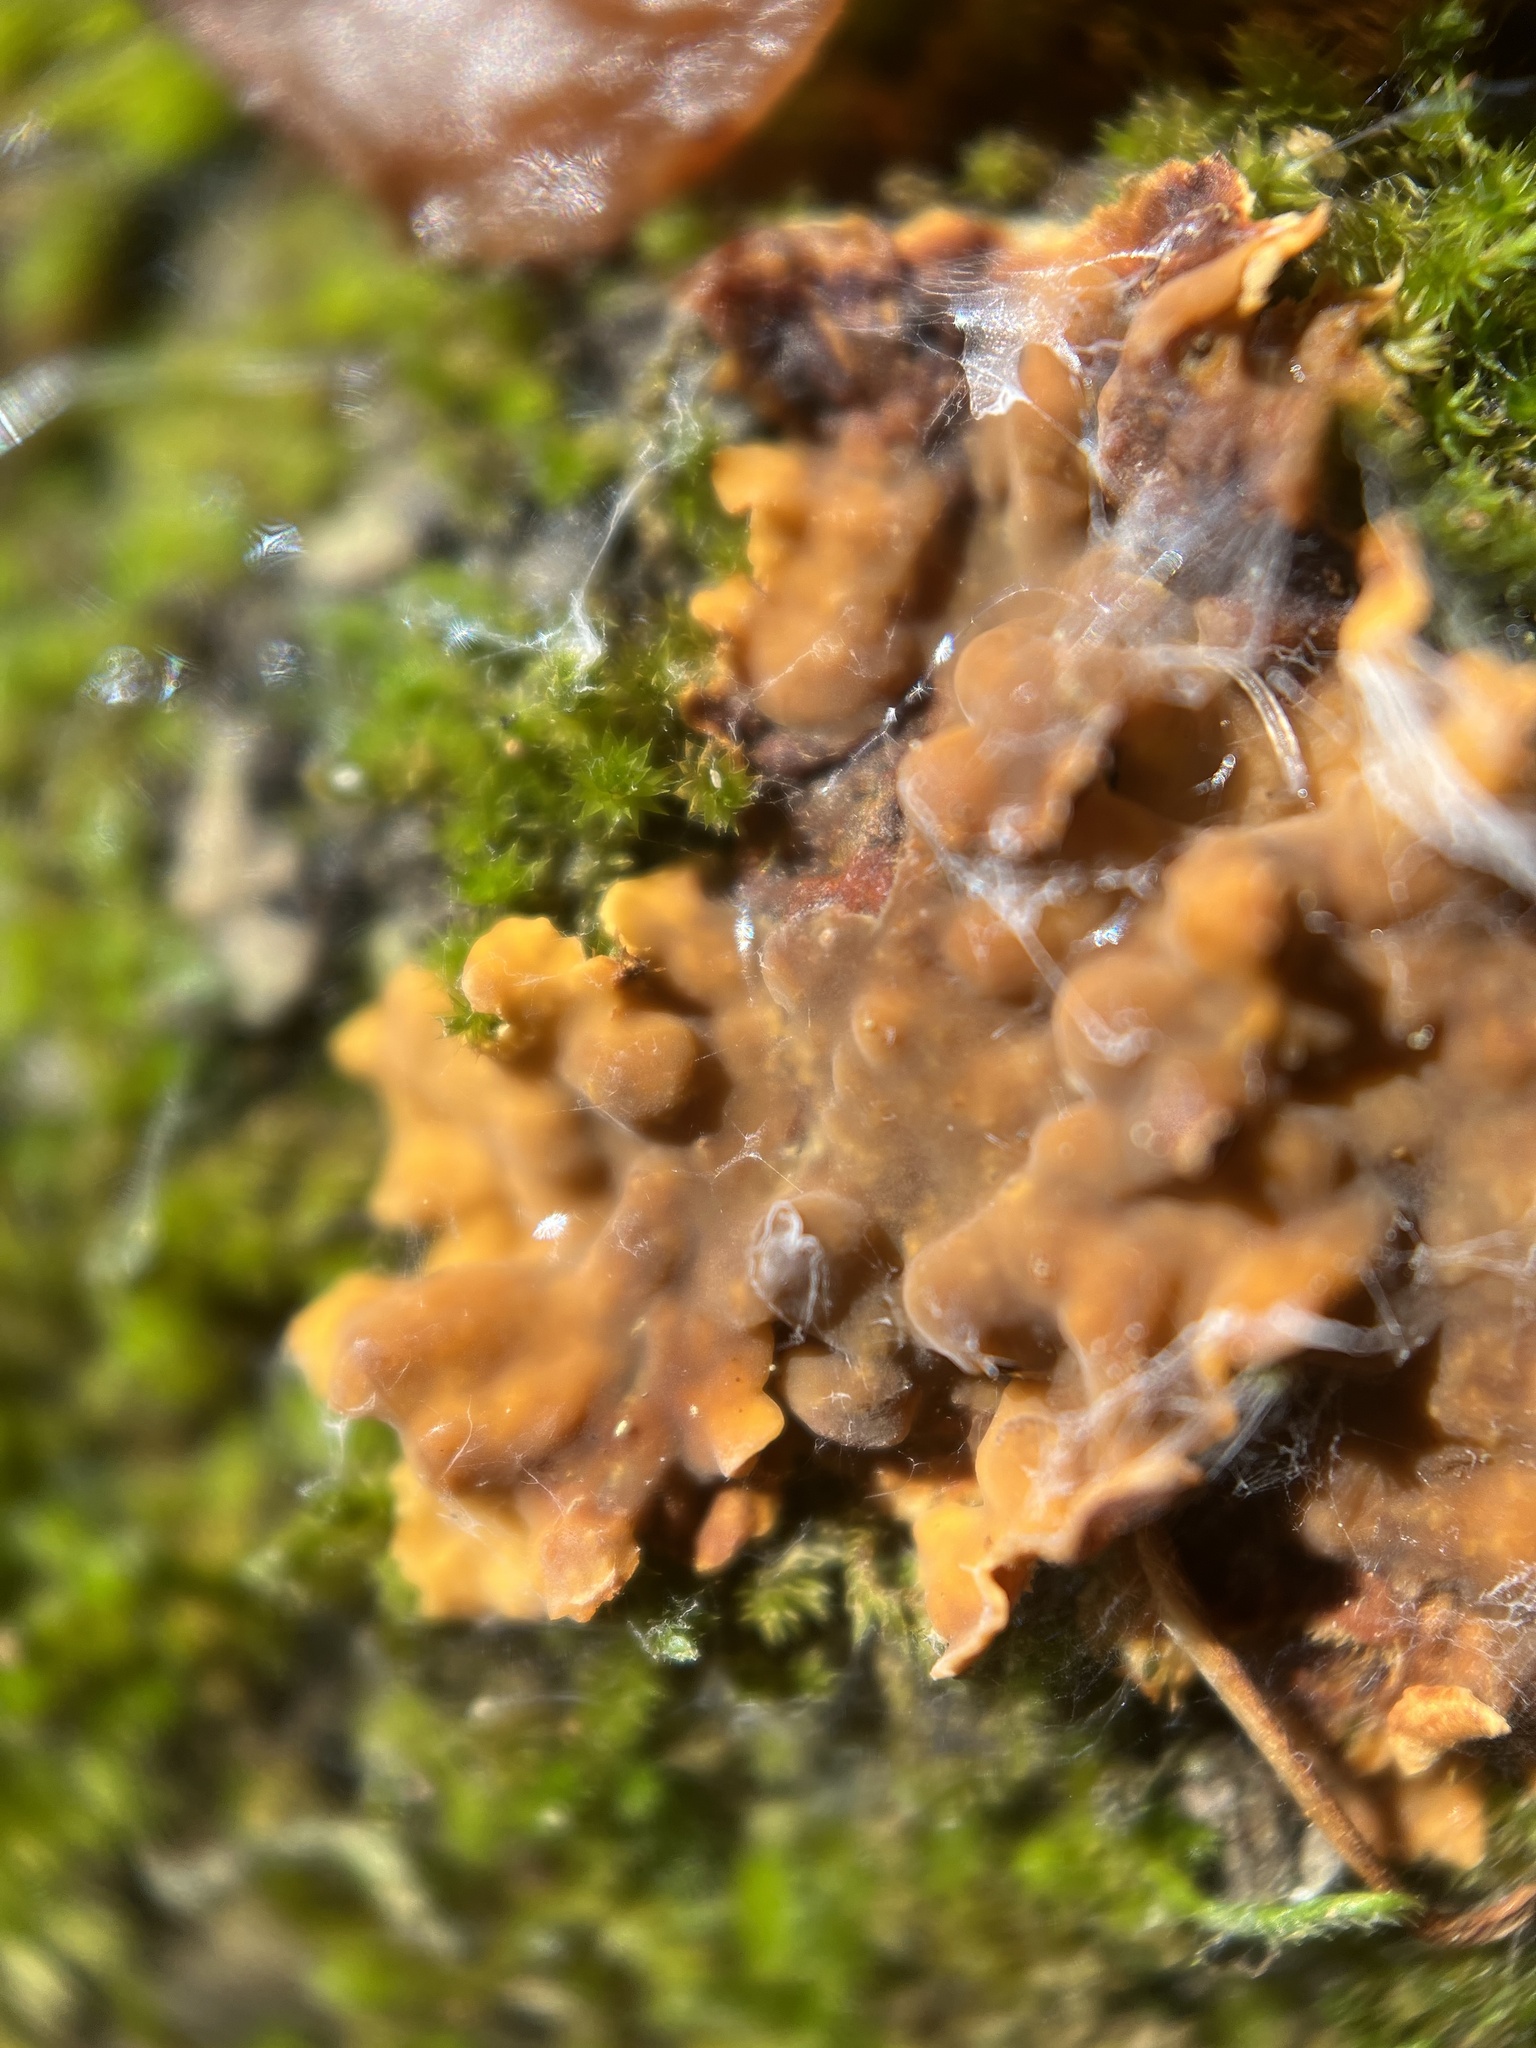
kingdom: Fungi
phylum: Basidiomycota
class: Agaricomycetes
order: Russulales
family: Stereaceae
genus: Stereum
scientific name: Stereum complicatum
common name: Crowded parchment
